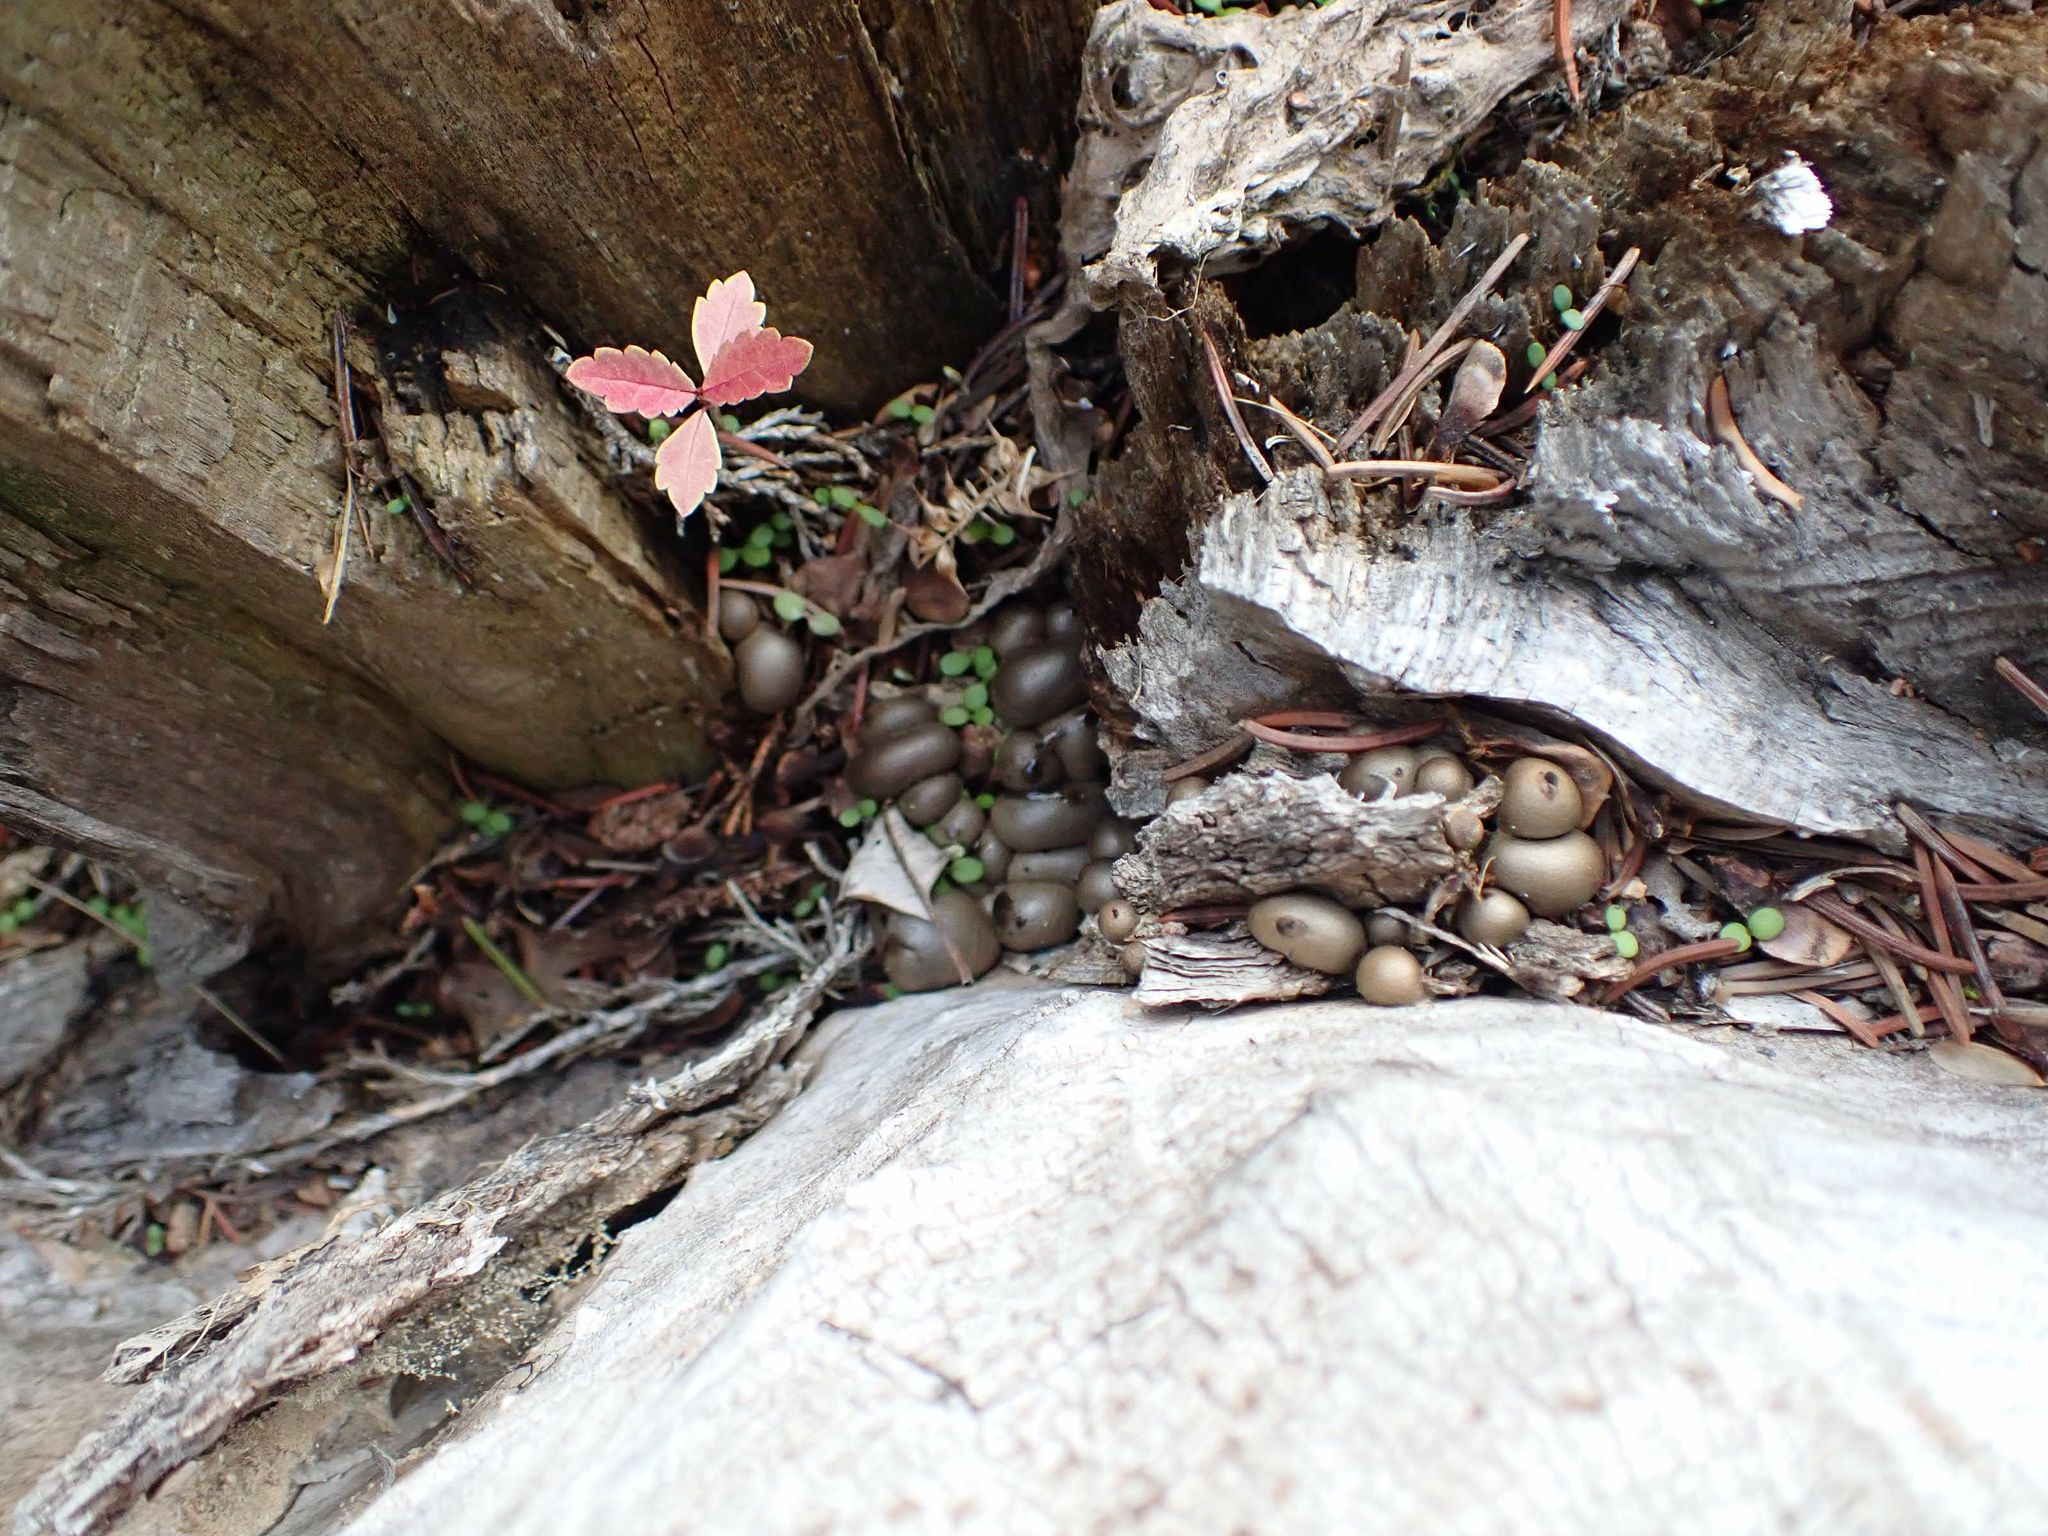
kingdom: Protozoa
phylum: Mycetozoa
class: Myxomycetes
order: Cribrariales
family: Tubiferaceae
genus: Lycogala
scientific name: Lycogala epidendrum
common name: Wolf's milk
